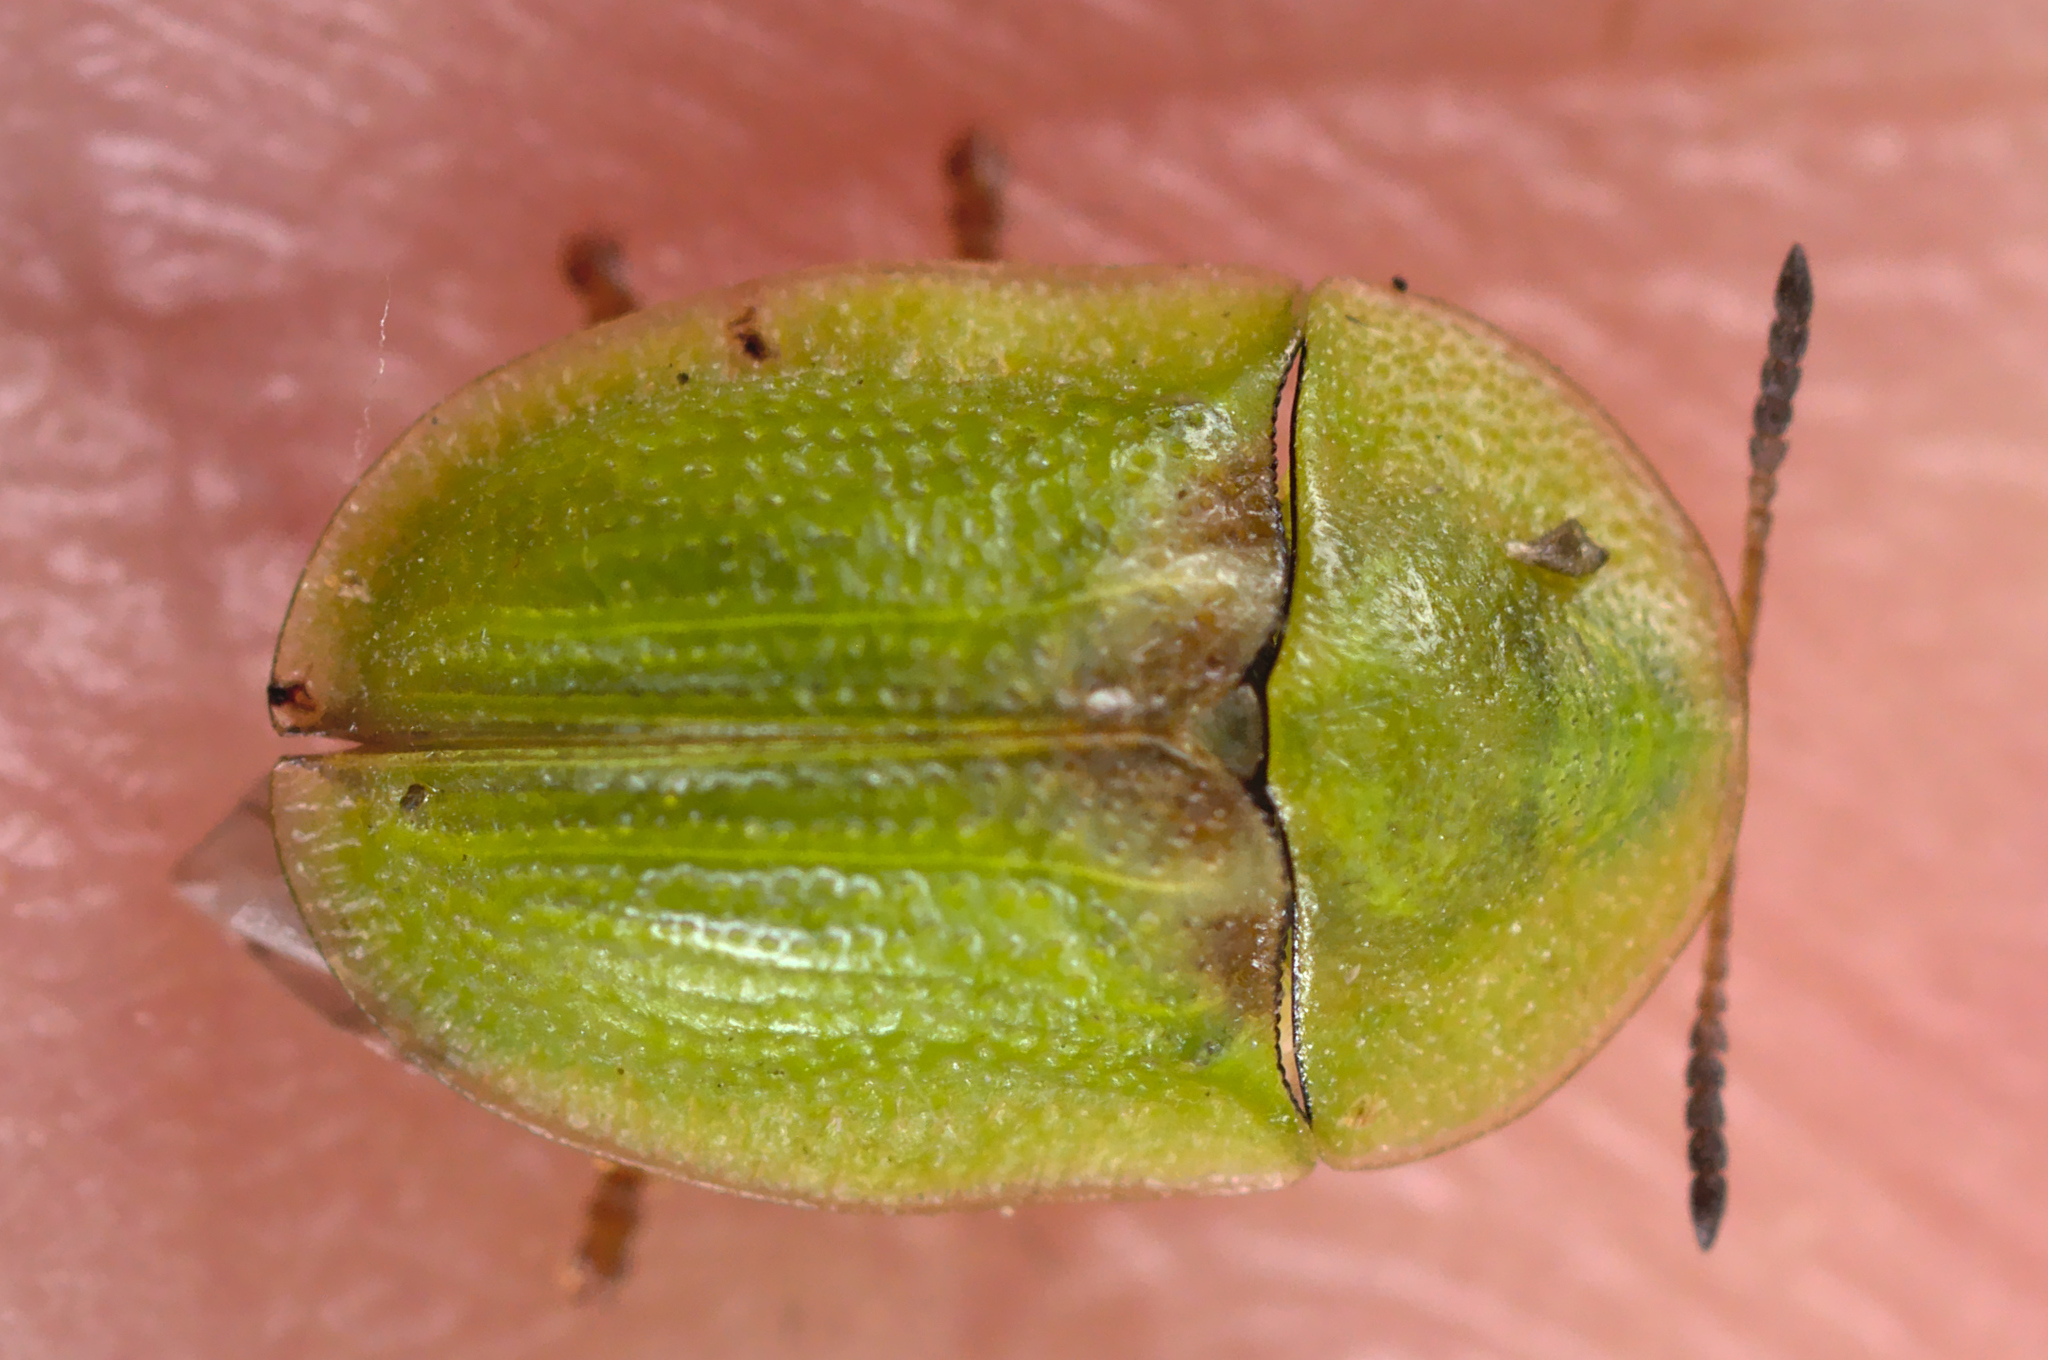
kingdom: Animalia
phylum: Arthropoda
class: Insecta
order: Coleoptera
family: Chrysomelidae
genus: Cassida
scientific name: Cassida denticollis
